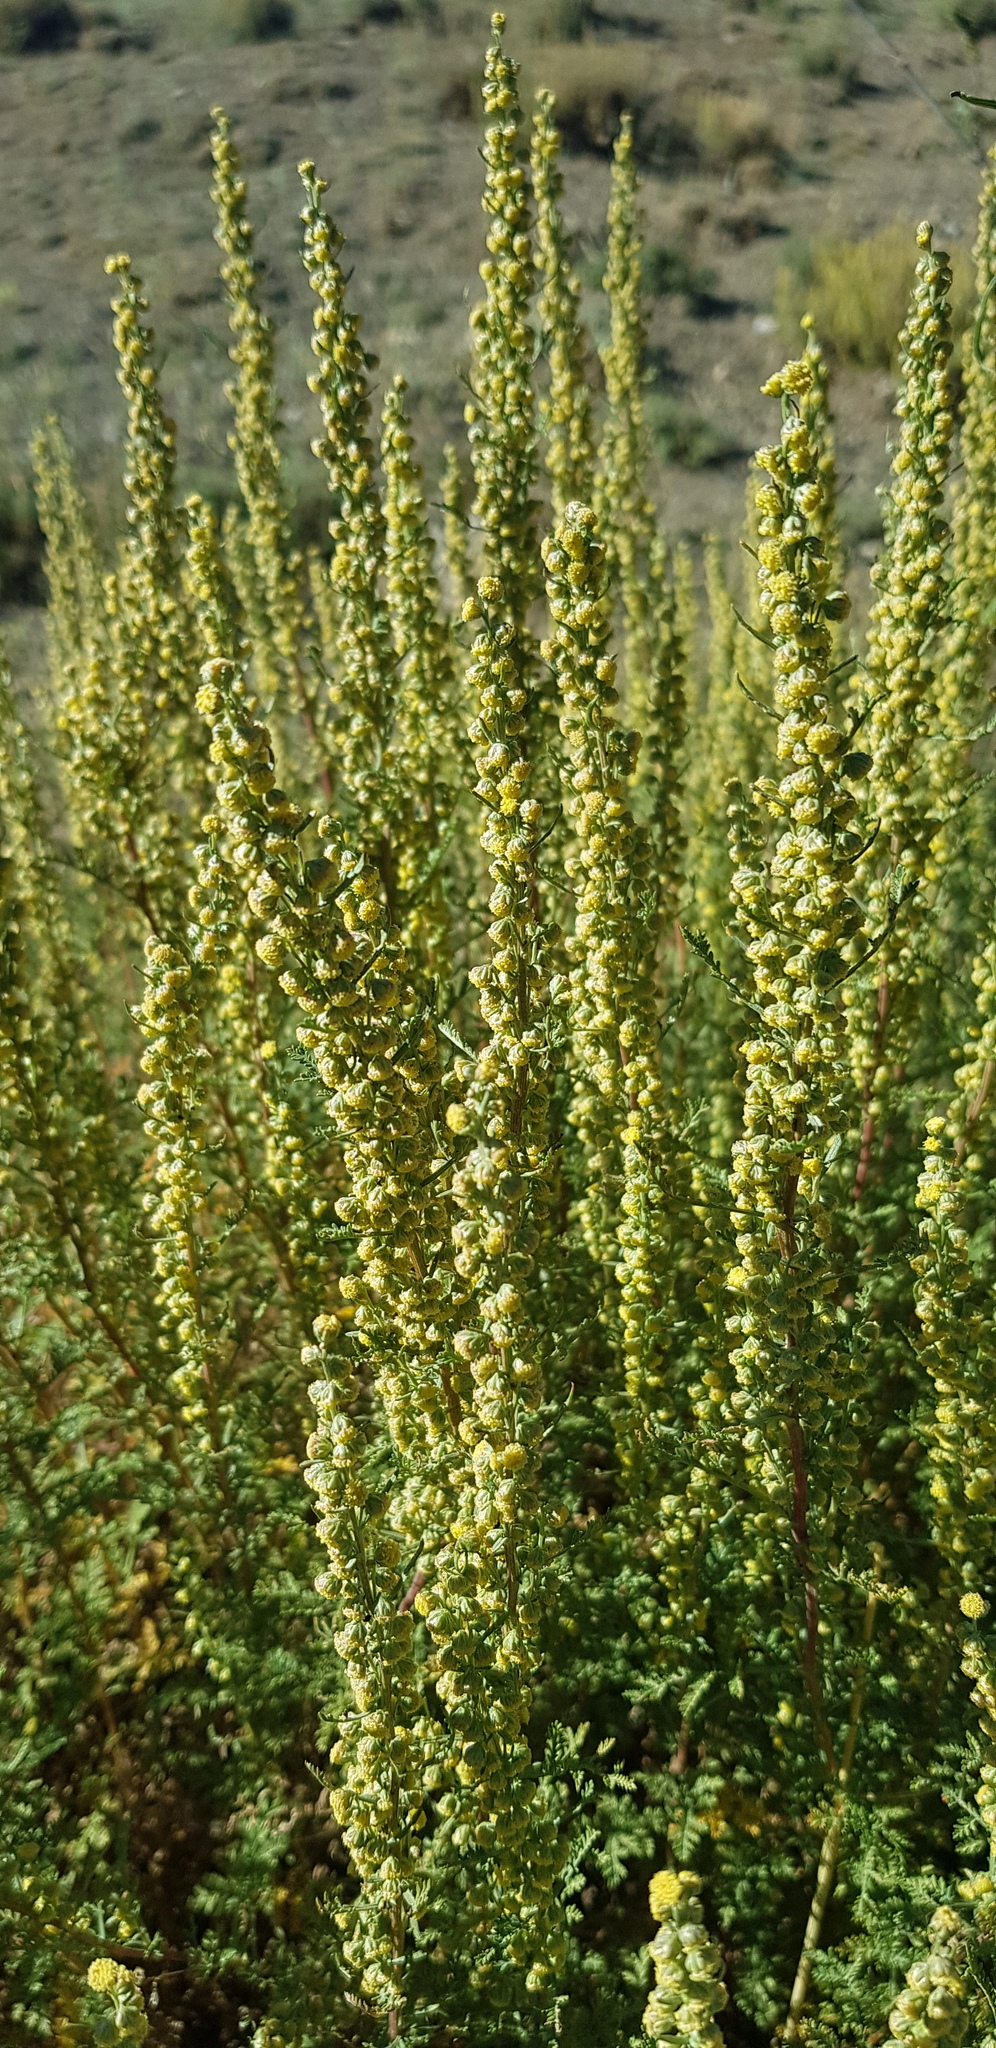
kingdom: Plantae
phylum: Tracheophyta
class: Magnoliopsida
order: Asterales
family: Asteraceae
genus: Artemisia
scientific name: Artemisia
